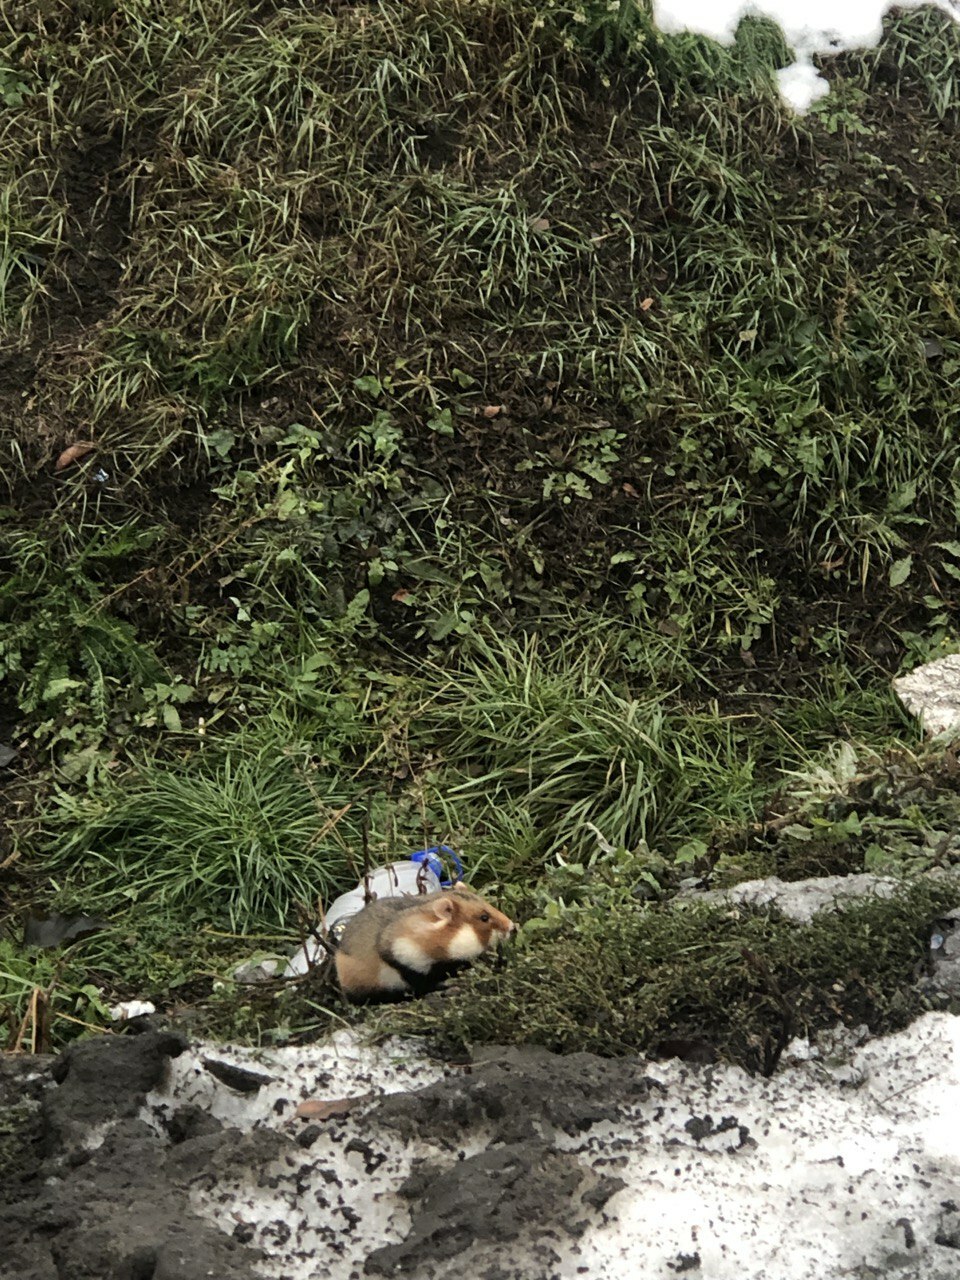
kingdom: Animalia
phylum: Chordata
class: Mammalia
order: Rodentia
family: Cricetidae
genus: Cricetus
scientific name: Cricetus cricetus
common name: Common hamster
